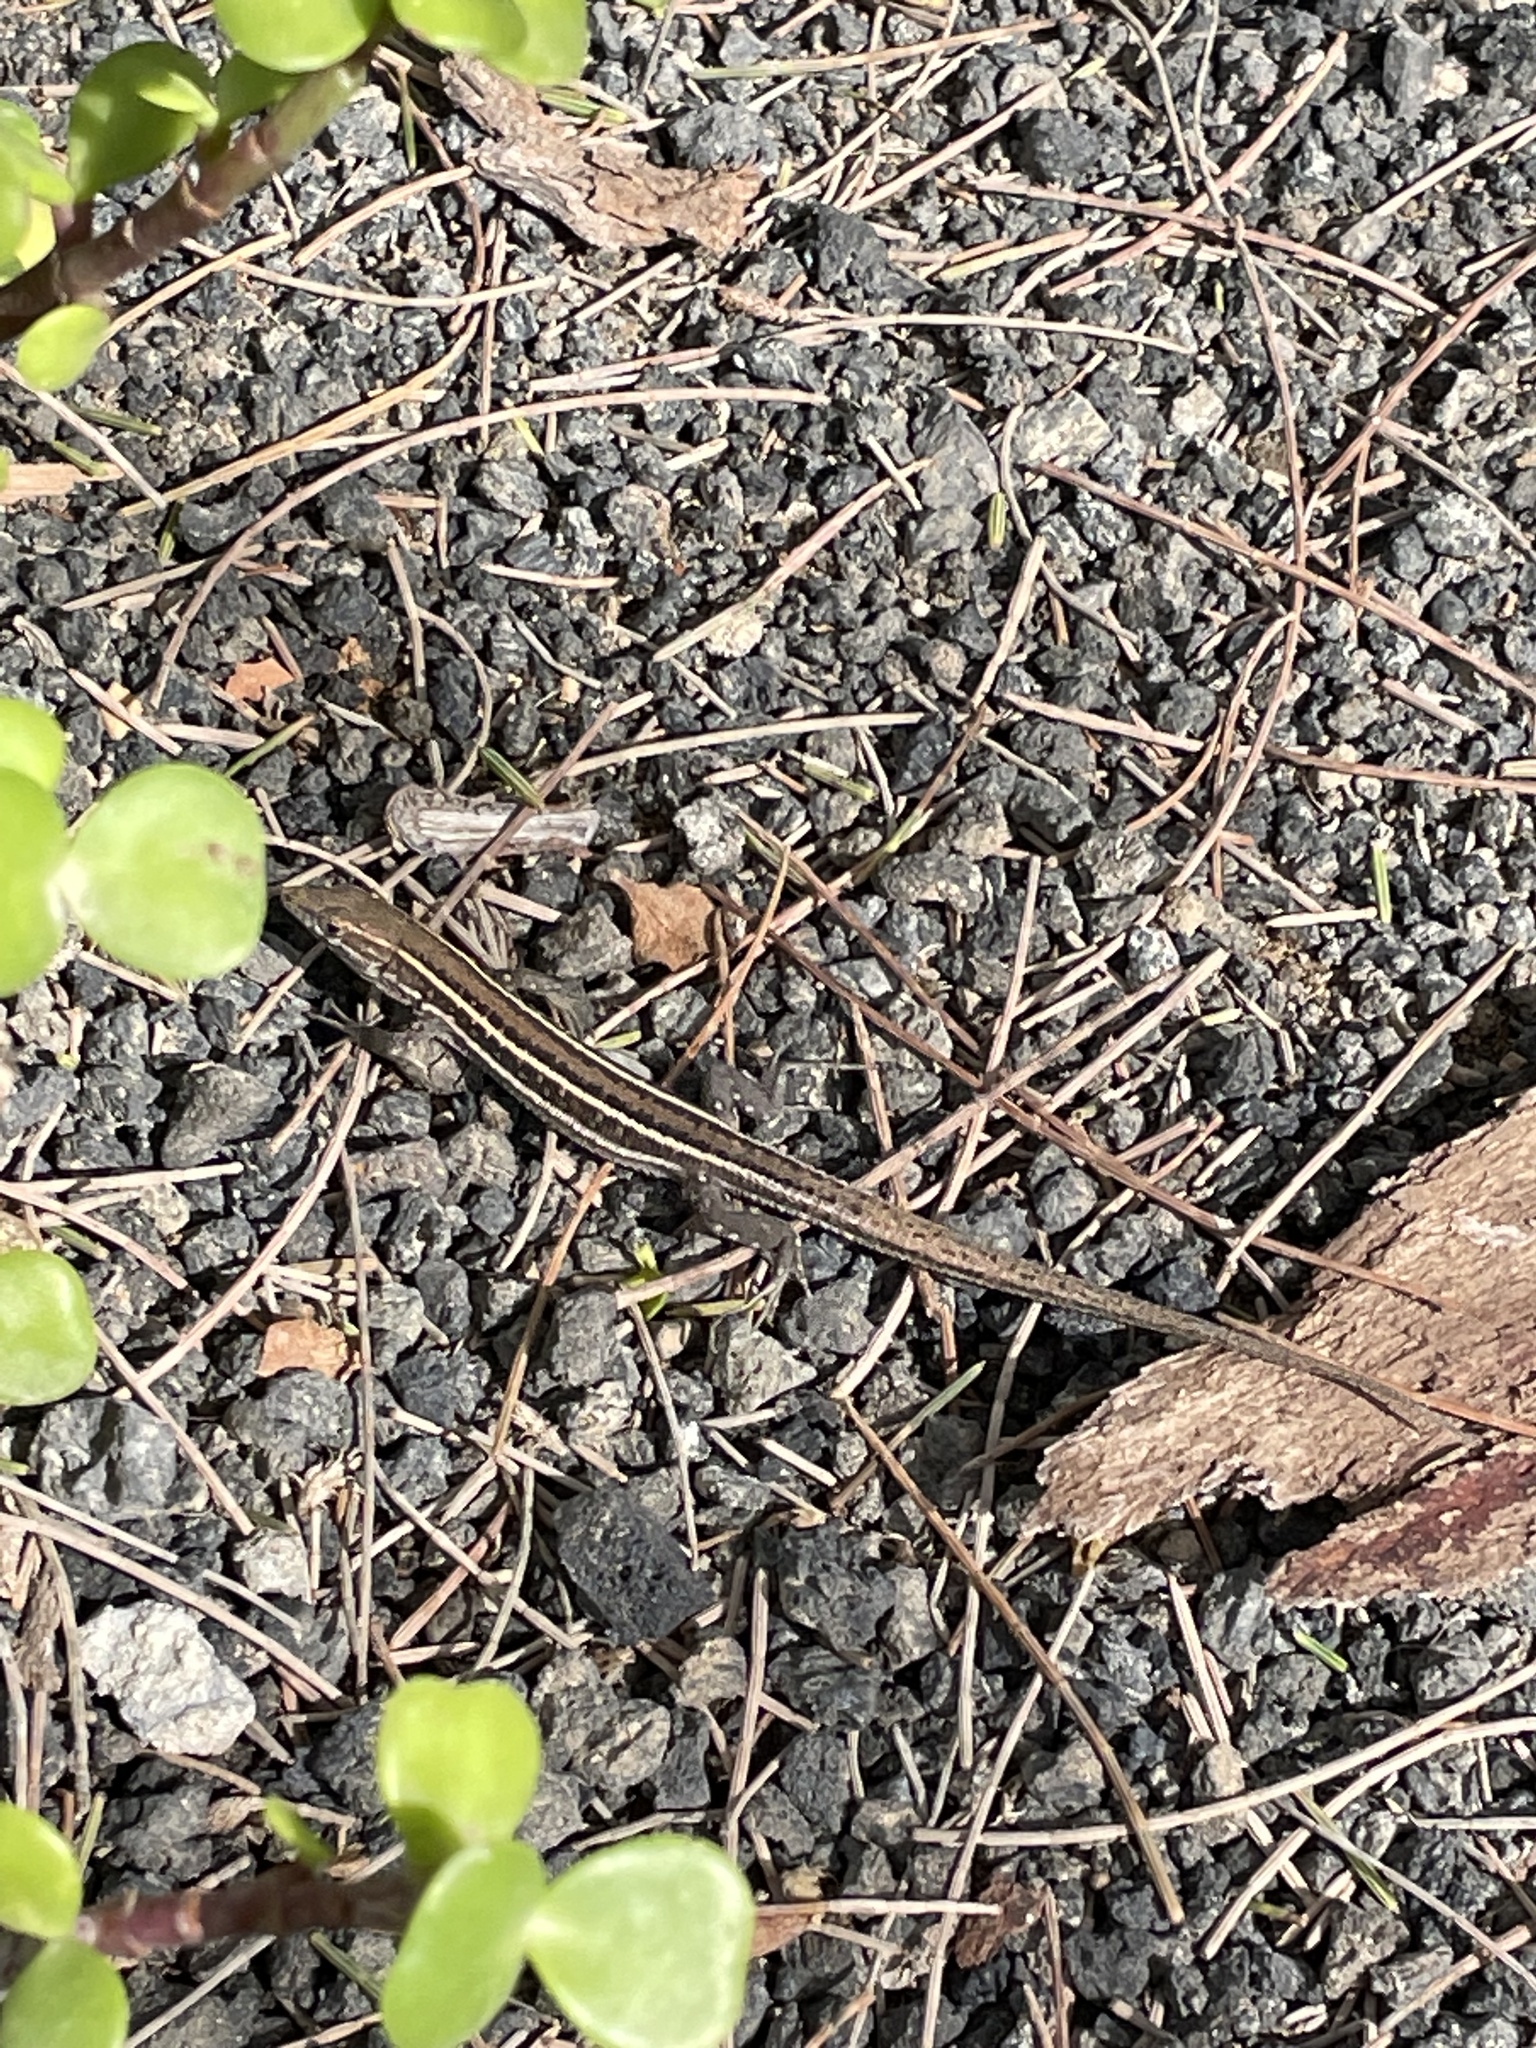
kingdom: Animalia
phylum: Chordata
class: Squamata
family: Lacertidae
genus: Gallotia
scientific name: Gallotia atlantica
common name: Atlantic lizard
